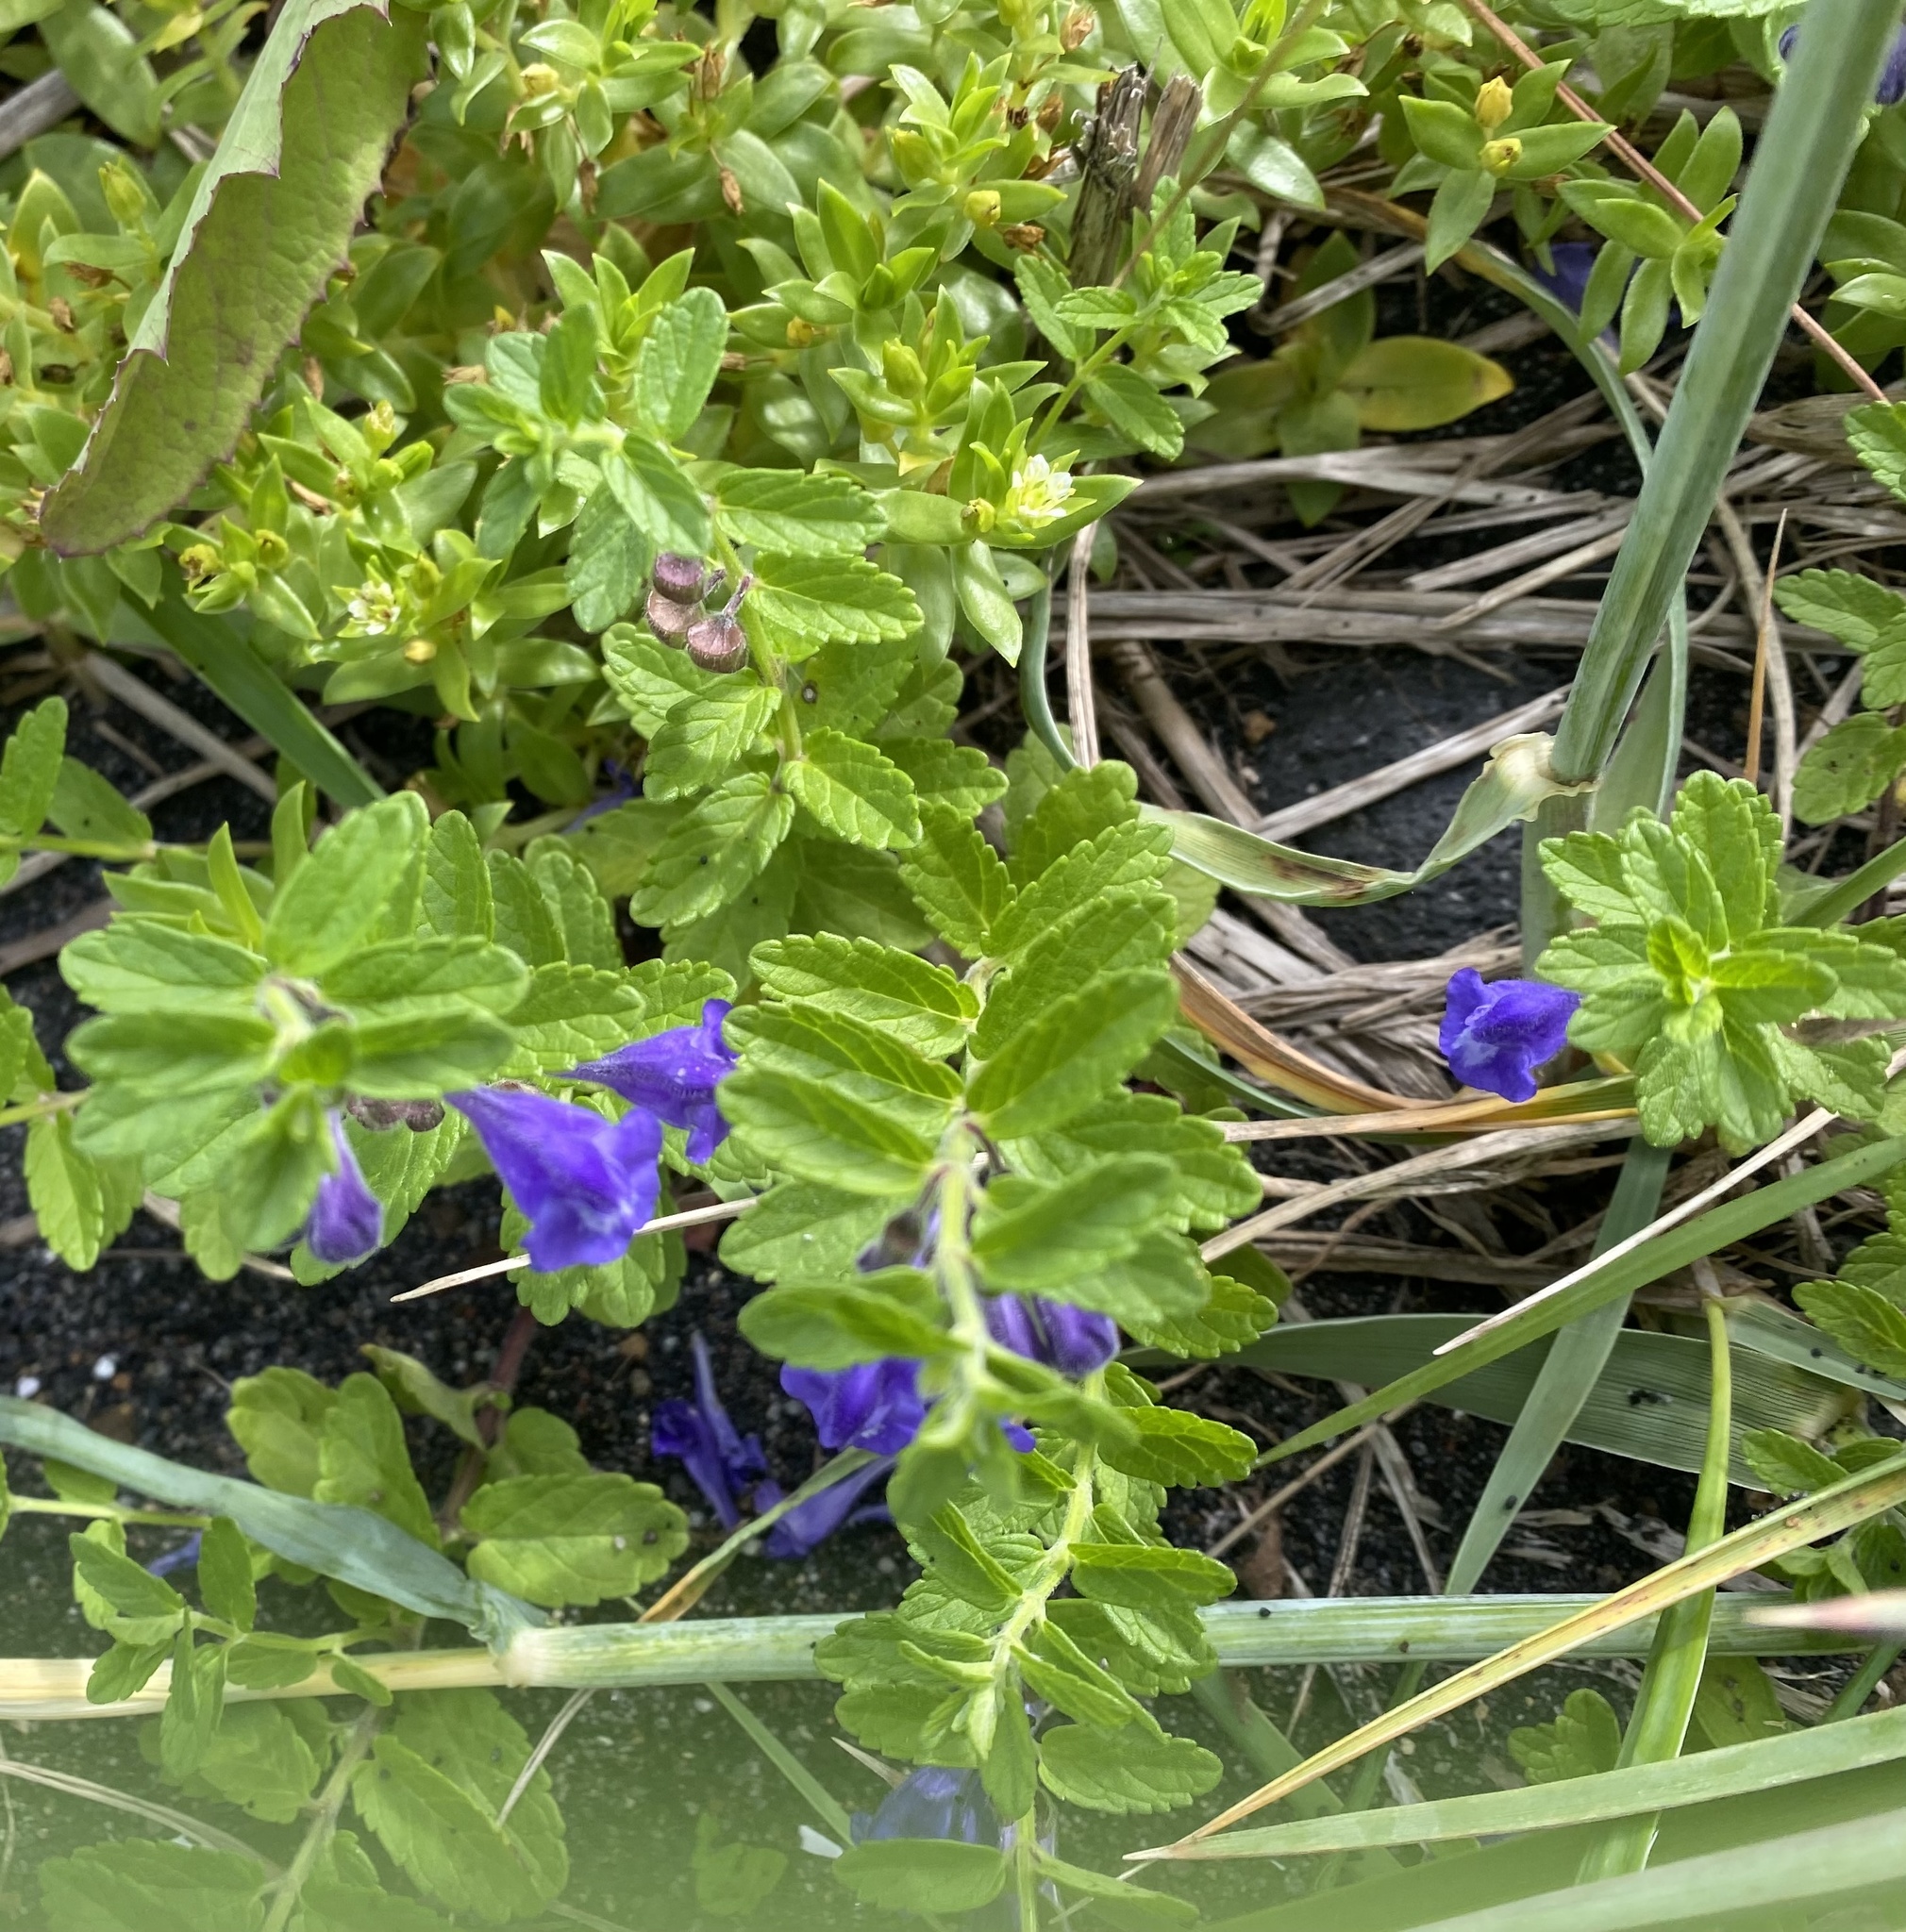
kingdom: Plantae
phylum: Tracheophyta
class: Magnoliopsida
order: Lamiales
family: Lamiaceae
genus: Scutellaria
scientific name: Scutellaria strigillosa
